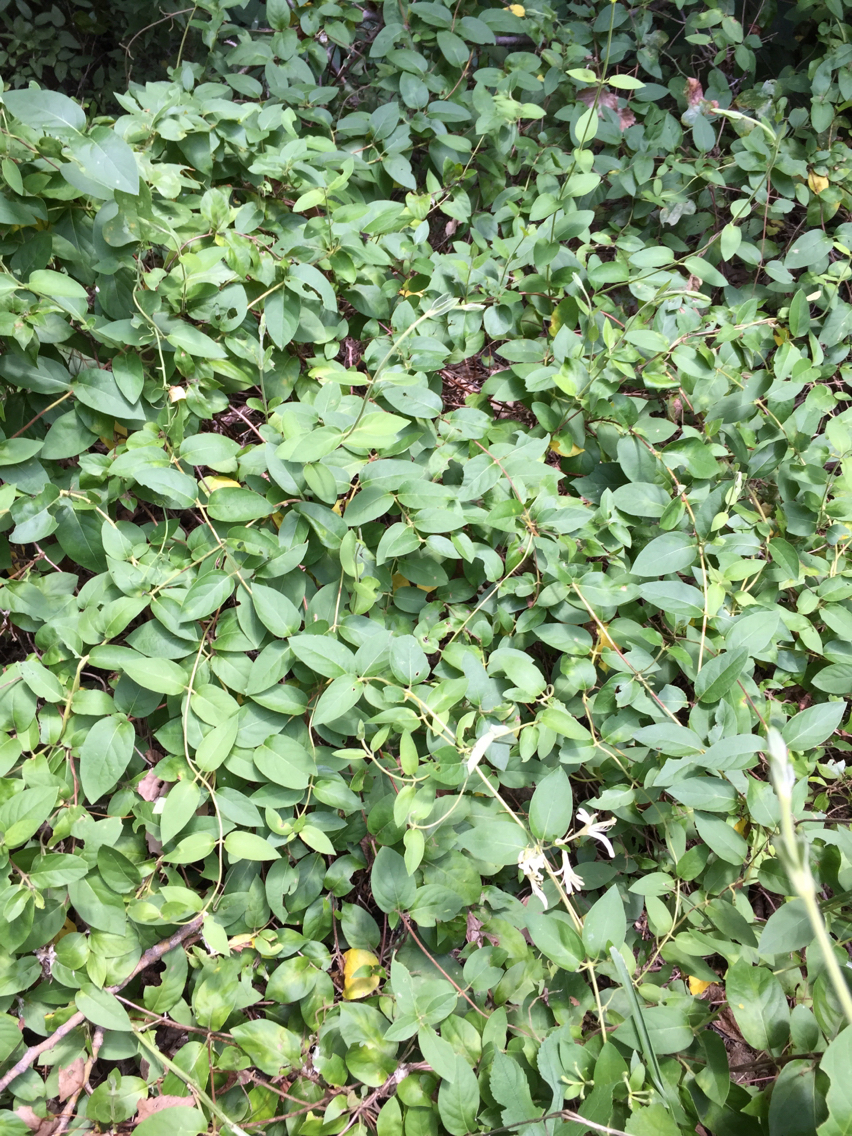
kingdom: Plantae
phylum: Tracheophyta
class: Magnoliopsida
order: Dipsacales
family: Caprifoliaceae
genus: Lonicera
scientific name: Lonicera japonica
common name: Japanese honeysuckle
